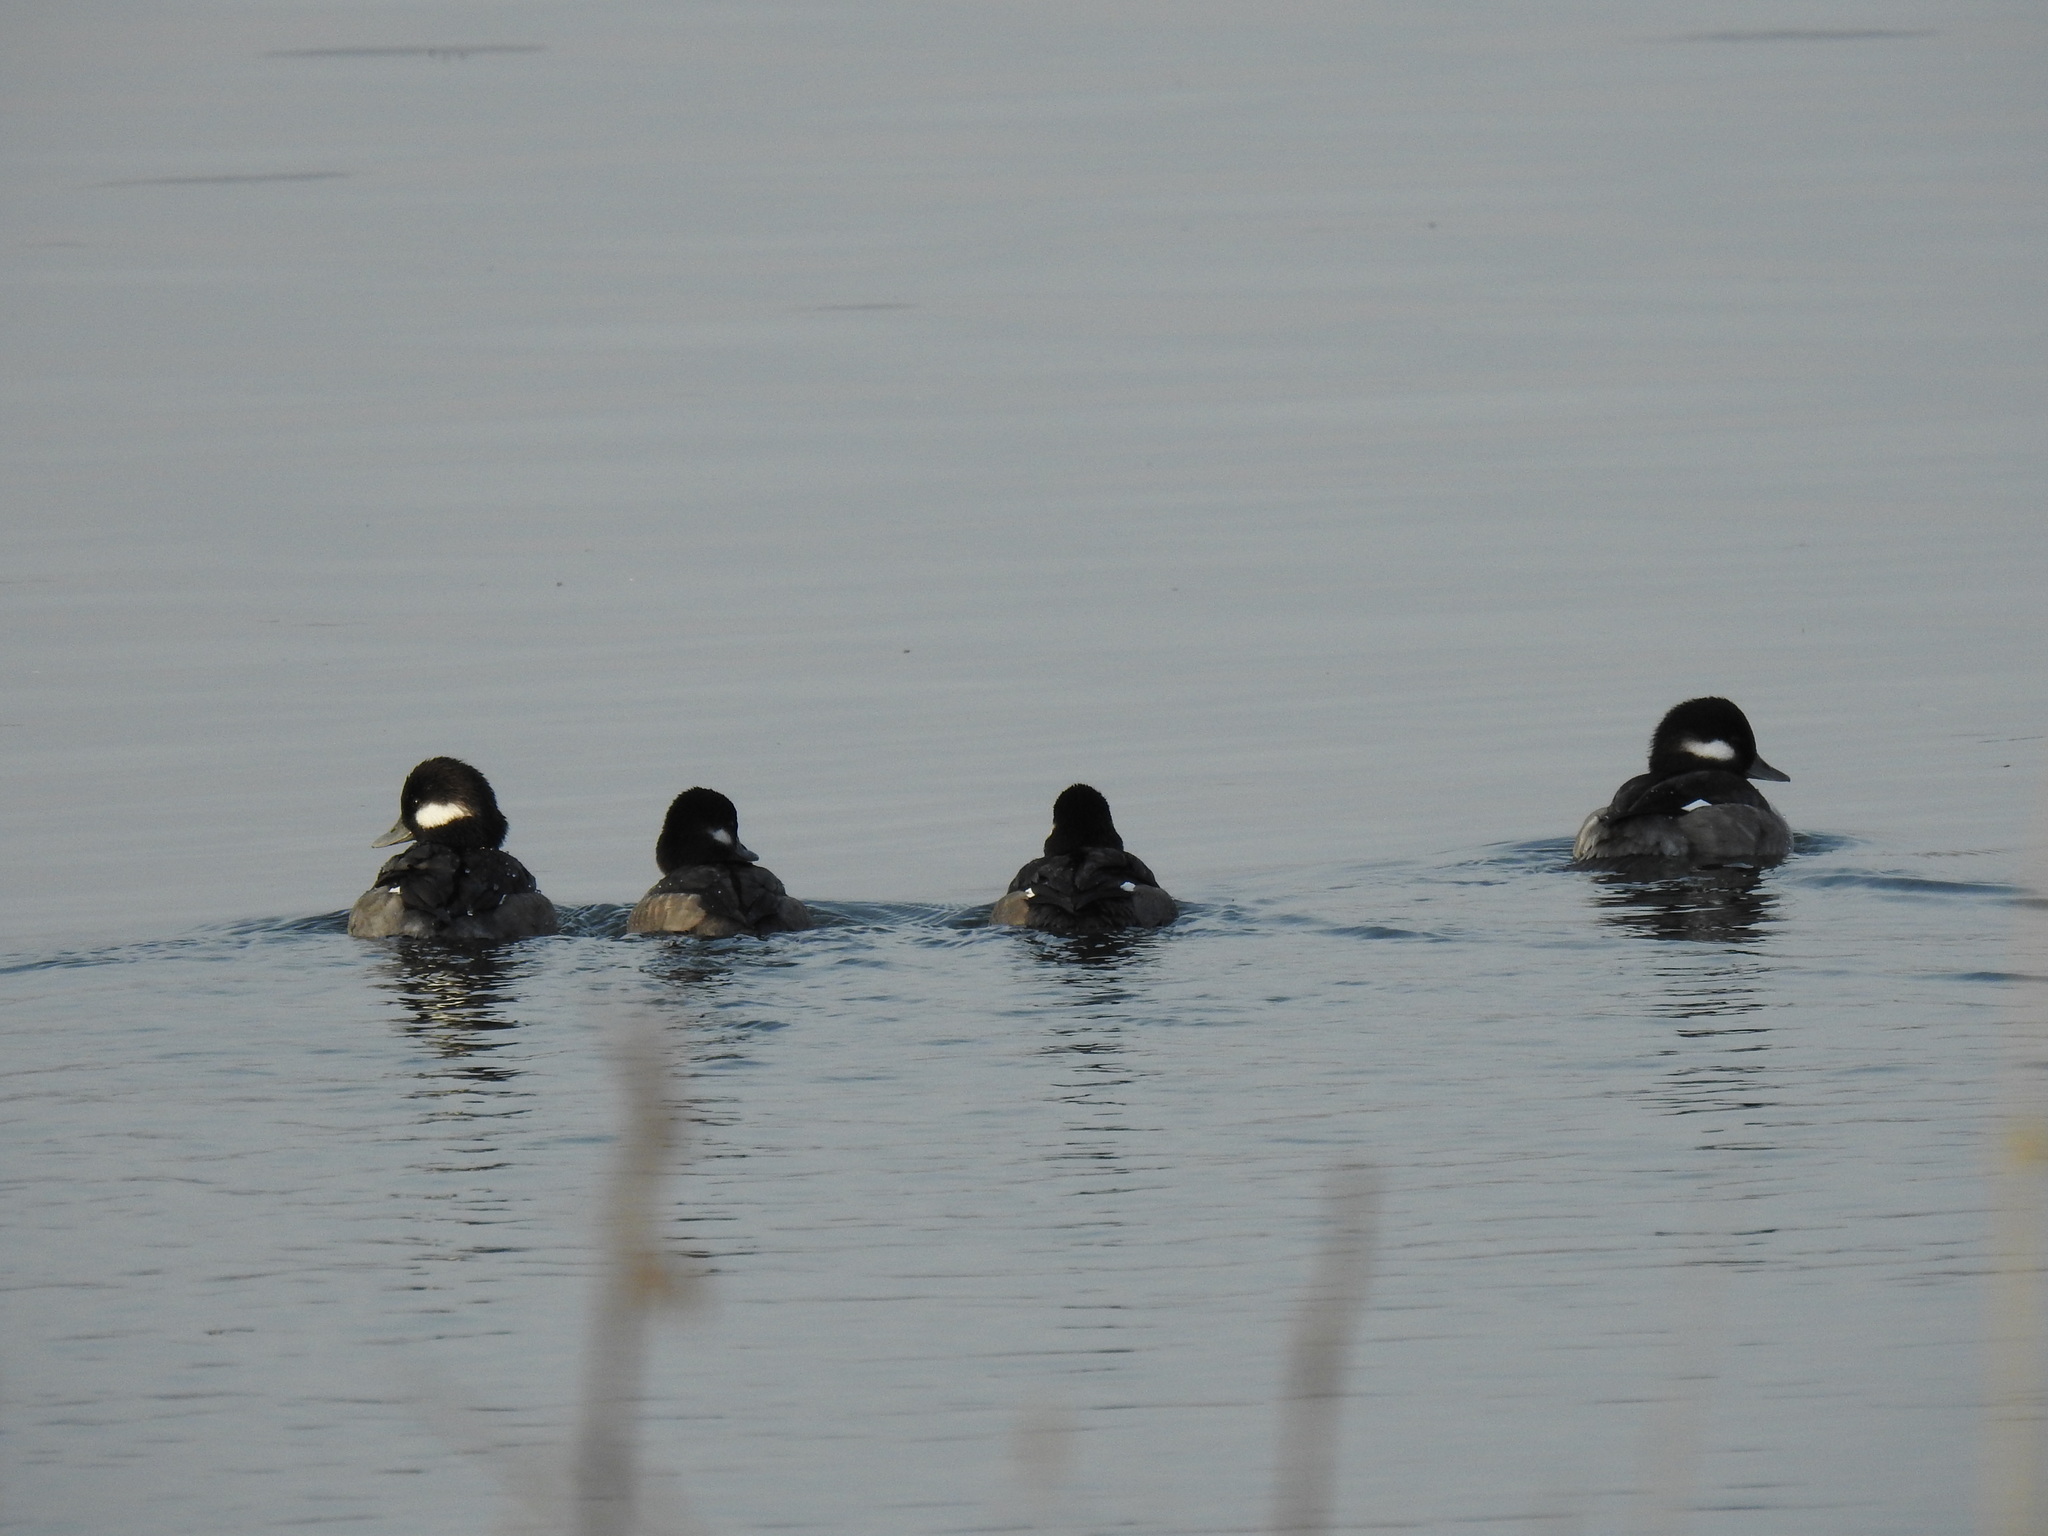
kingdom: Animalia
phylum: Chordata
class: Aves
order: Anseriformes
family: Anatidae
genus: Bucephala
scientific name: Bucephala albeola
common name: Bufflehead
